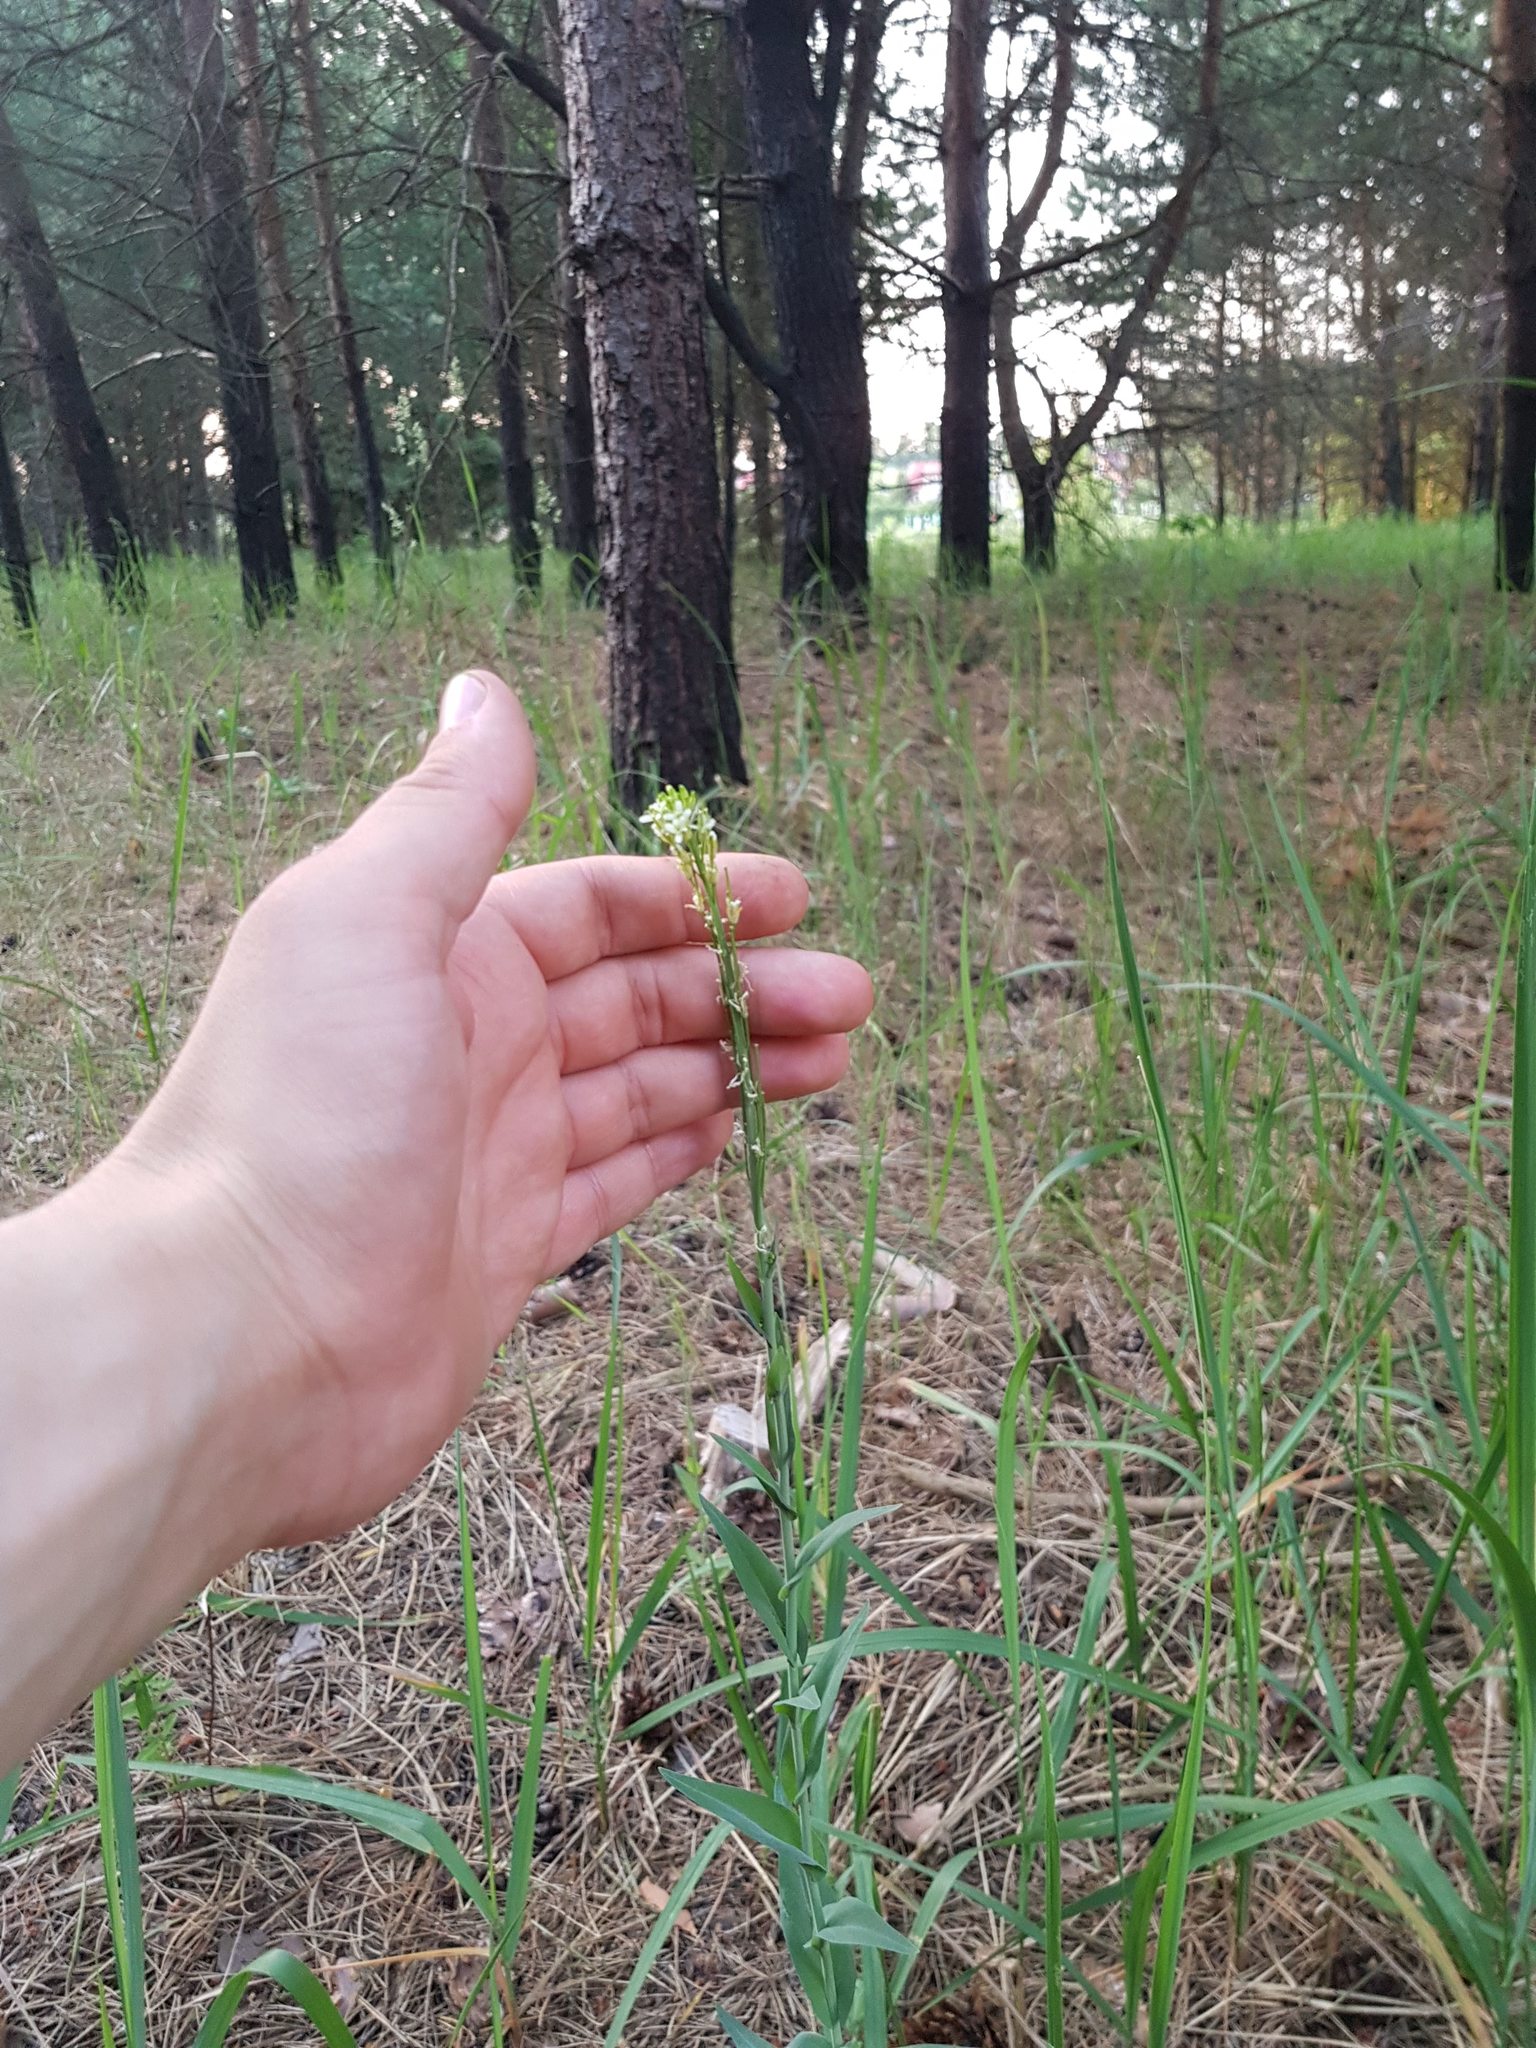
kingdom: Plantae
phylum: Tracheophyta
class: Magnoliopsida
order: Brassicales
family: Brassicaceae
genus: Turritis
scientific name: Turritis glabra
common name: Tower rockcress
